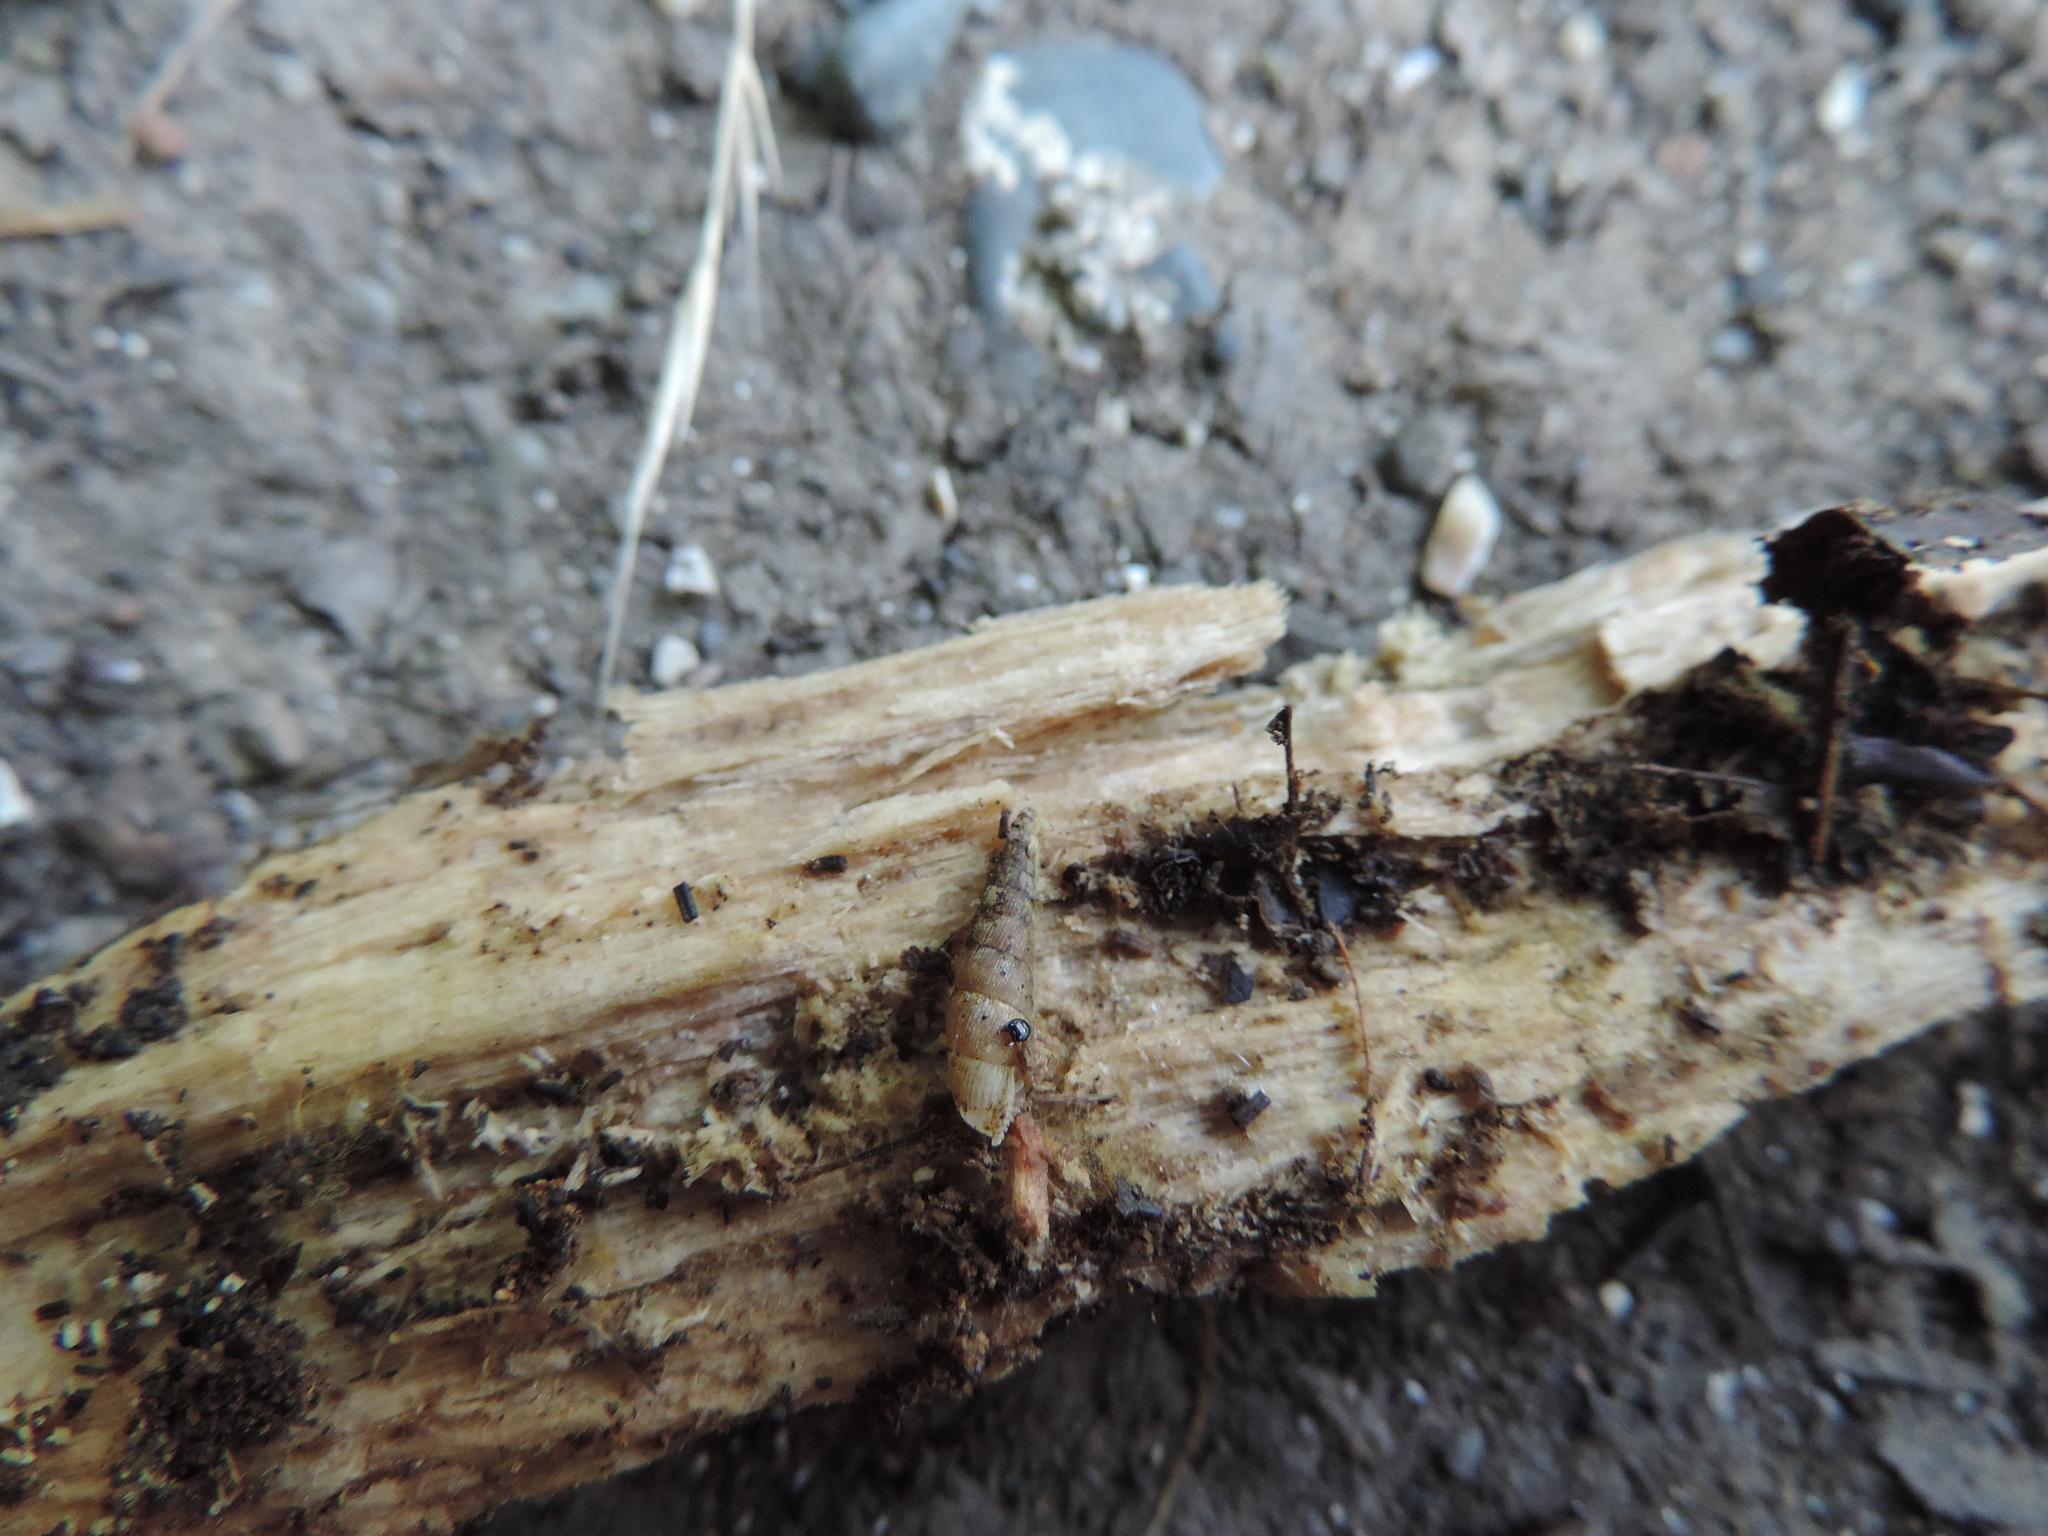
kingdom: Animalia
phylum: Mollusca
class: Gastropoda
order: Stylommatophora
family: Clausiliidae
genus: Serrulina
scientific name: Serrulina serrulata
